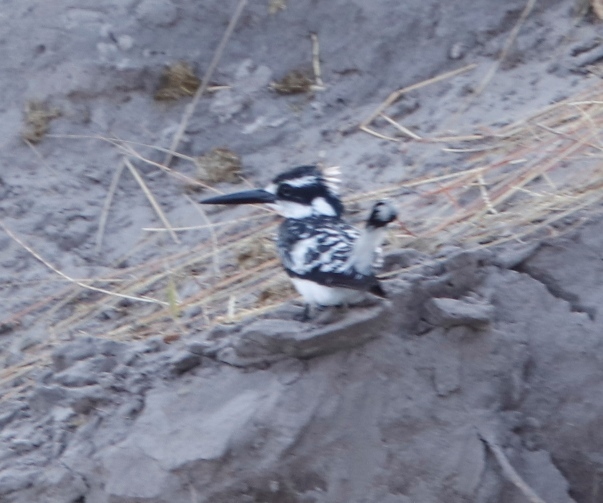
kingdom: Animalia
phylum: Chordata
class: Aves
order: Coraciiformes
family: Alcedinidae
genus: Ceryle
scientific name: Ceryle rudis
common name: Pied kingfisher
